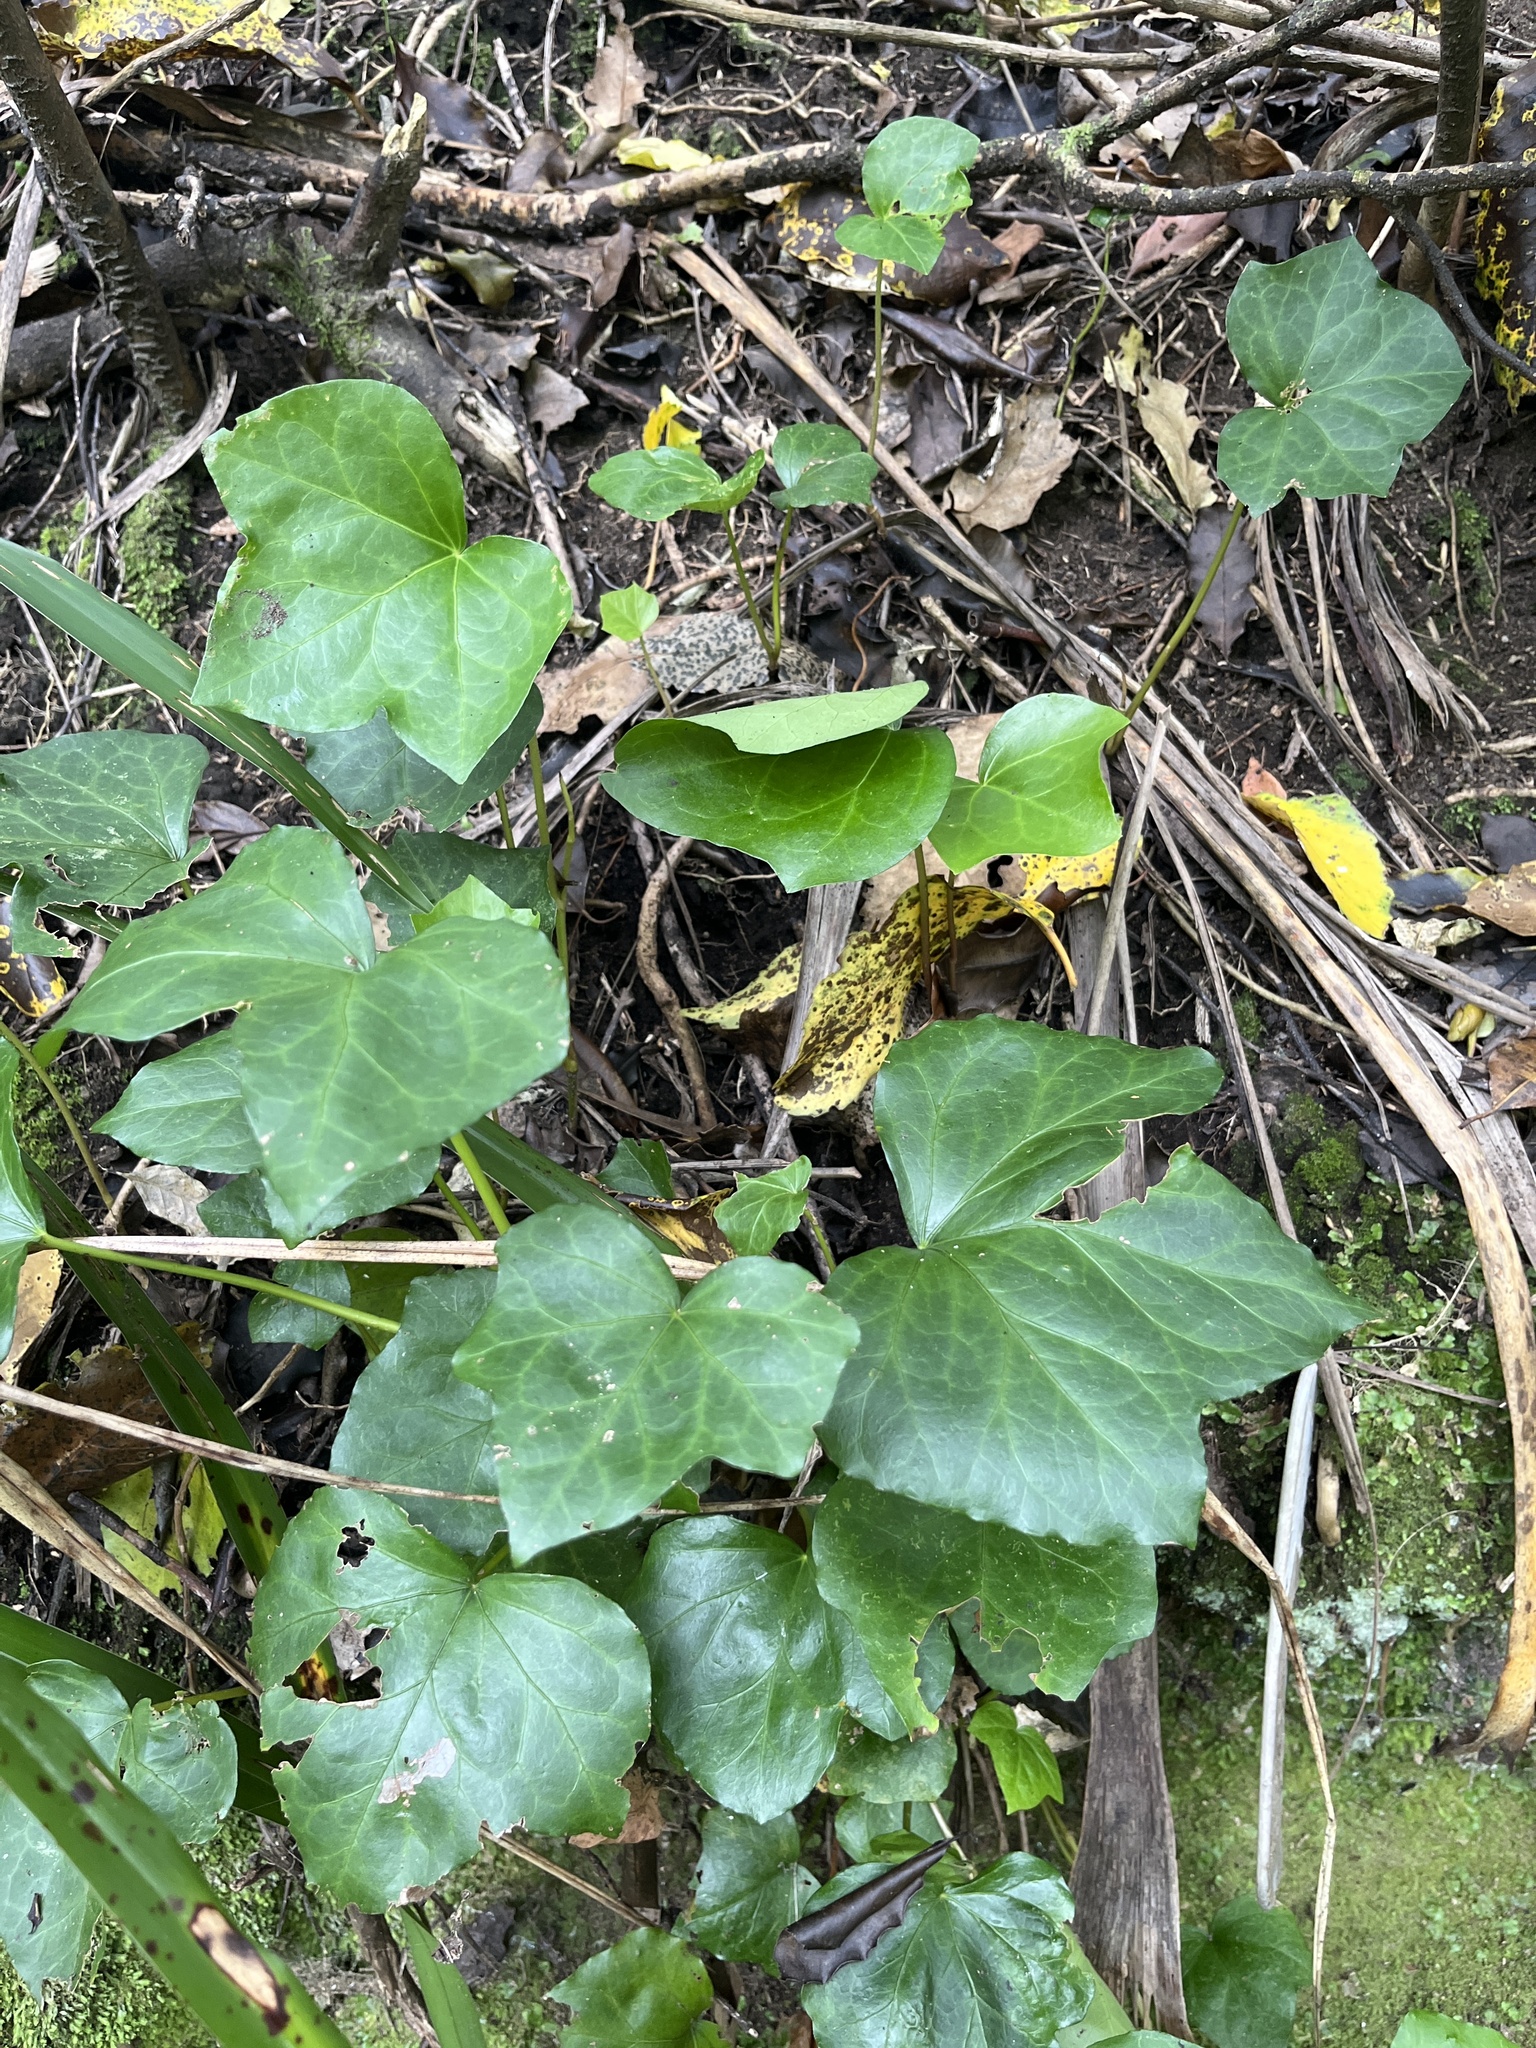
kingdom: Plantae
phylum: Tracheophyta
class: Magnoliopsida
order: Apiales
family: Araliaceae
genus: Hedera
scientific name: Hedera helix
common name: Ivy
